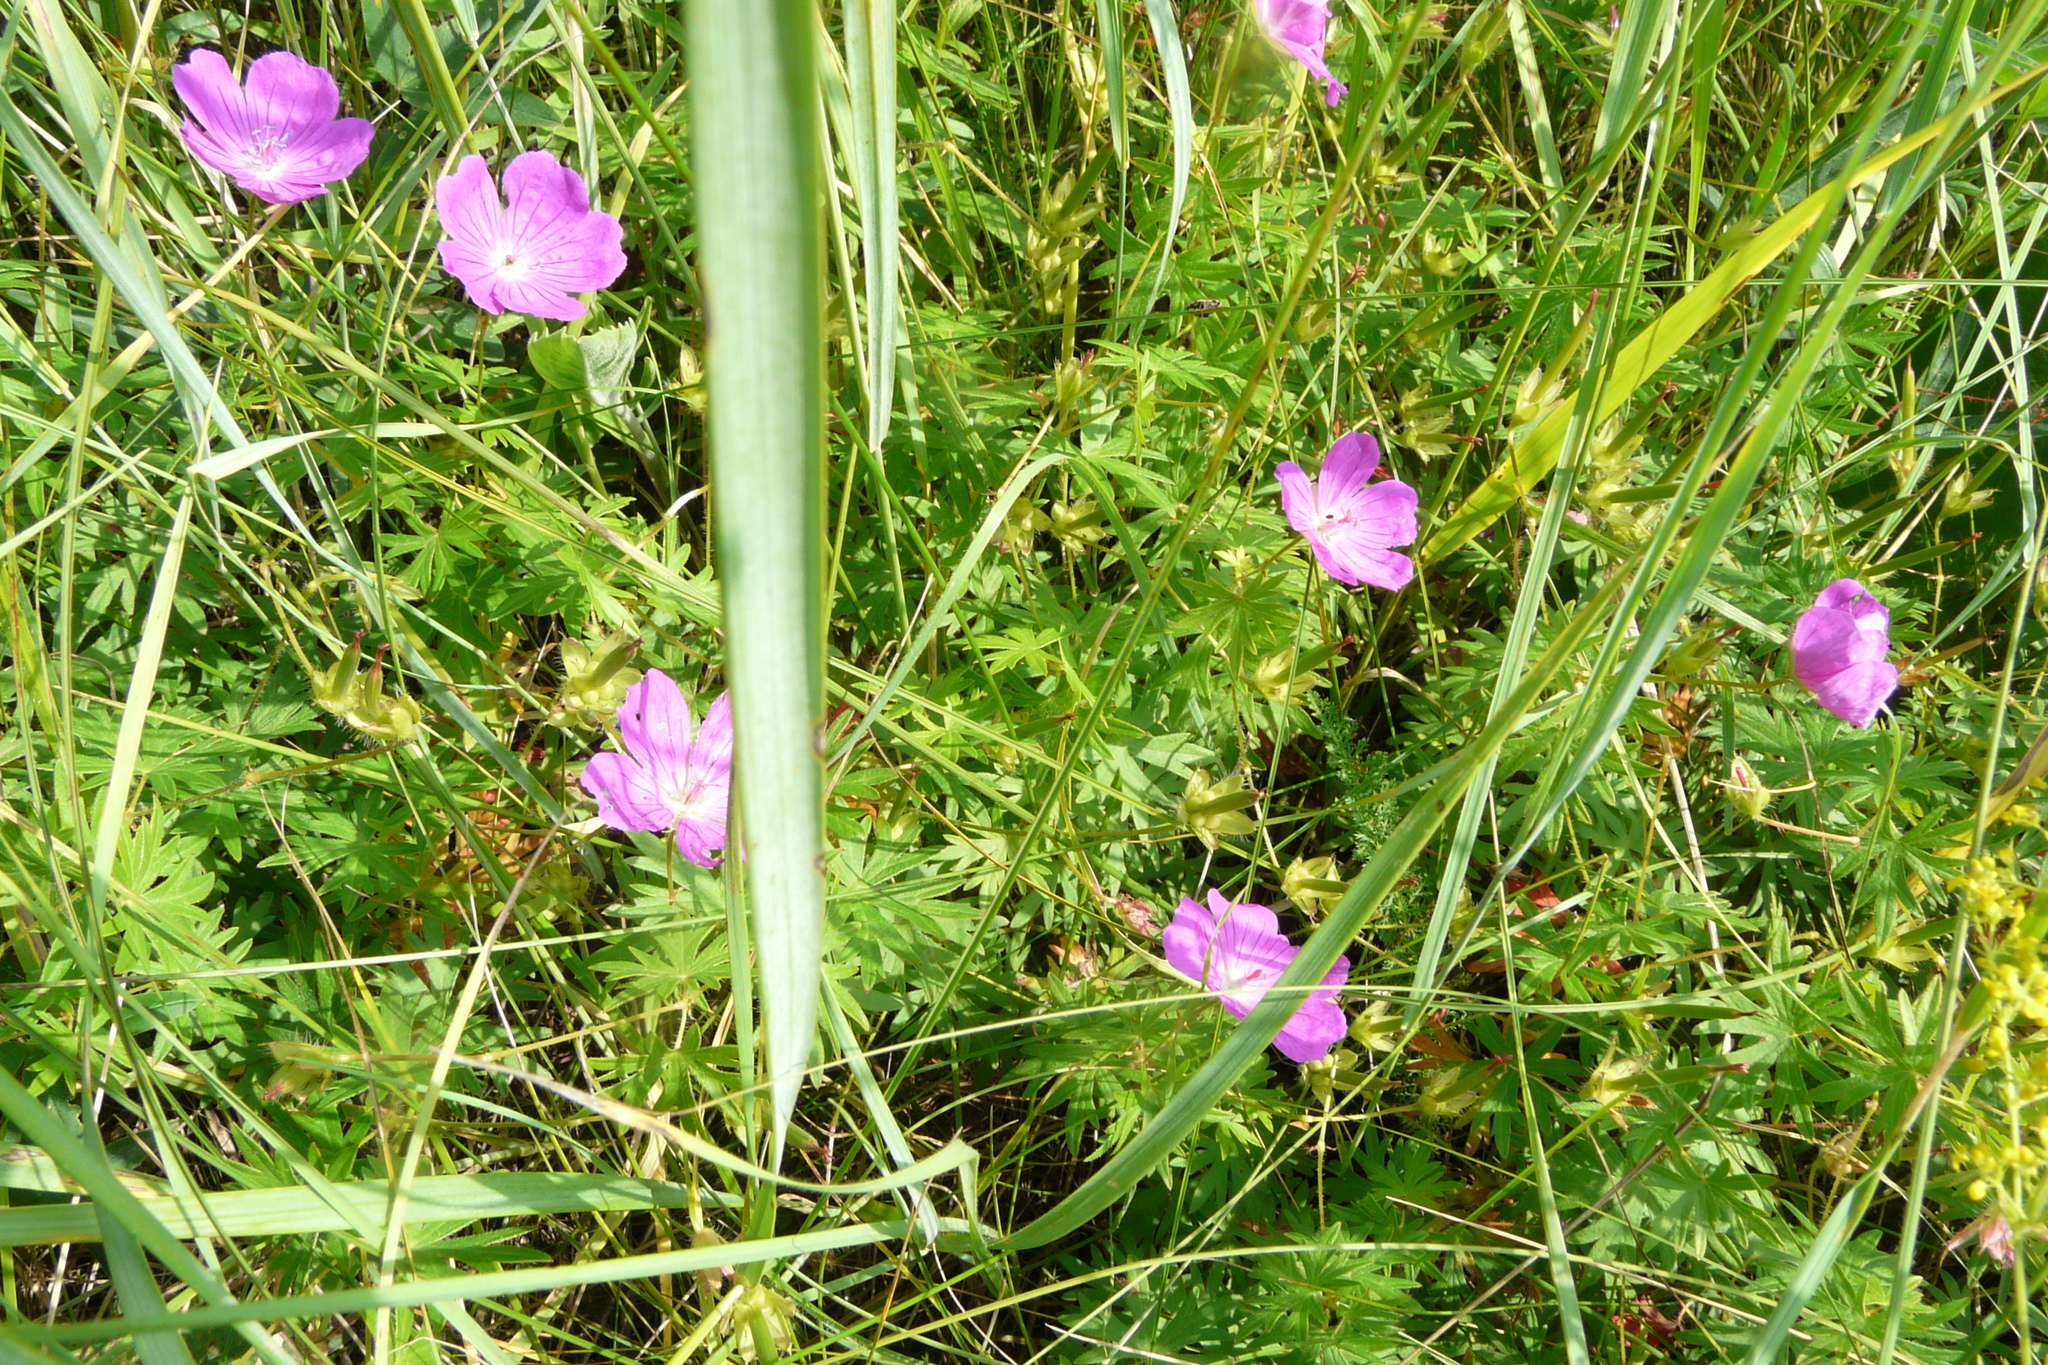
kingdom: Plantae
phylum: Tracheophyta
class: Magnoliopsida
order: Geraniales
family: Geraniaceae
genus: Geranium
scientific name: Geranium sanguineum
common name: Bloody crane's-bill
